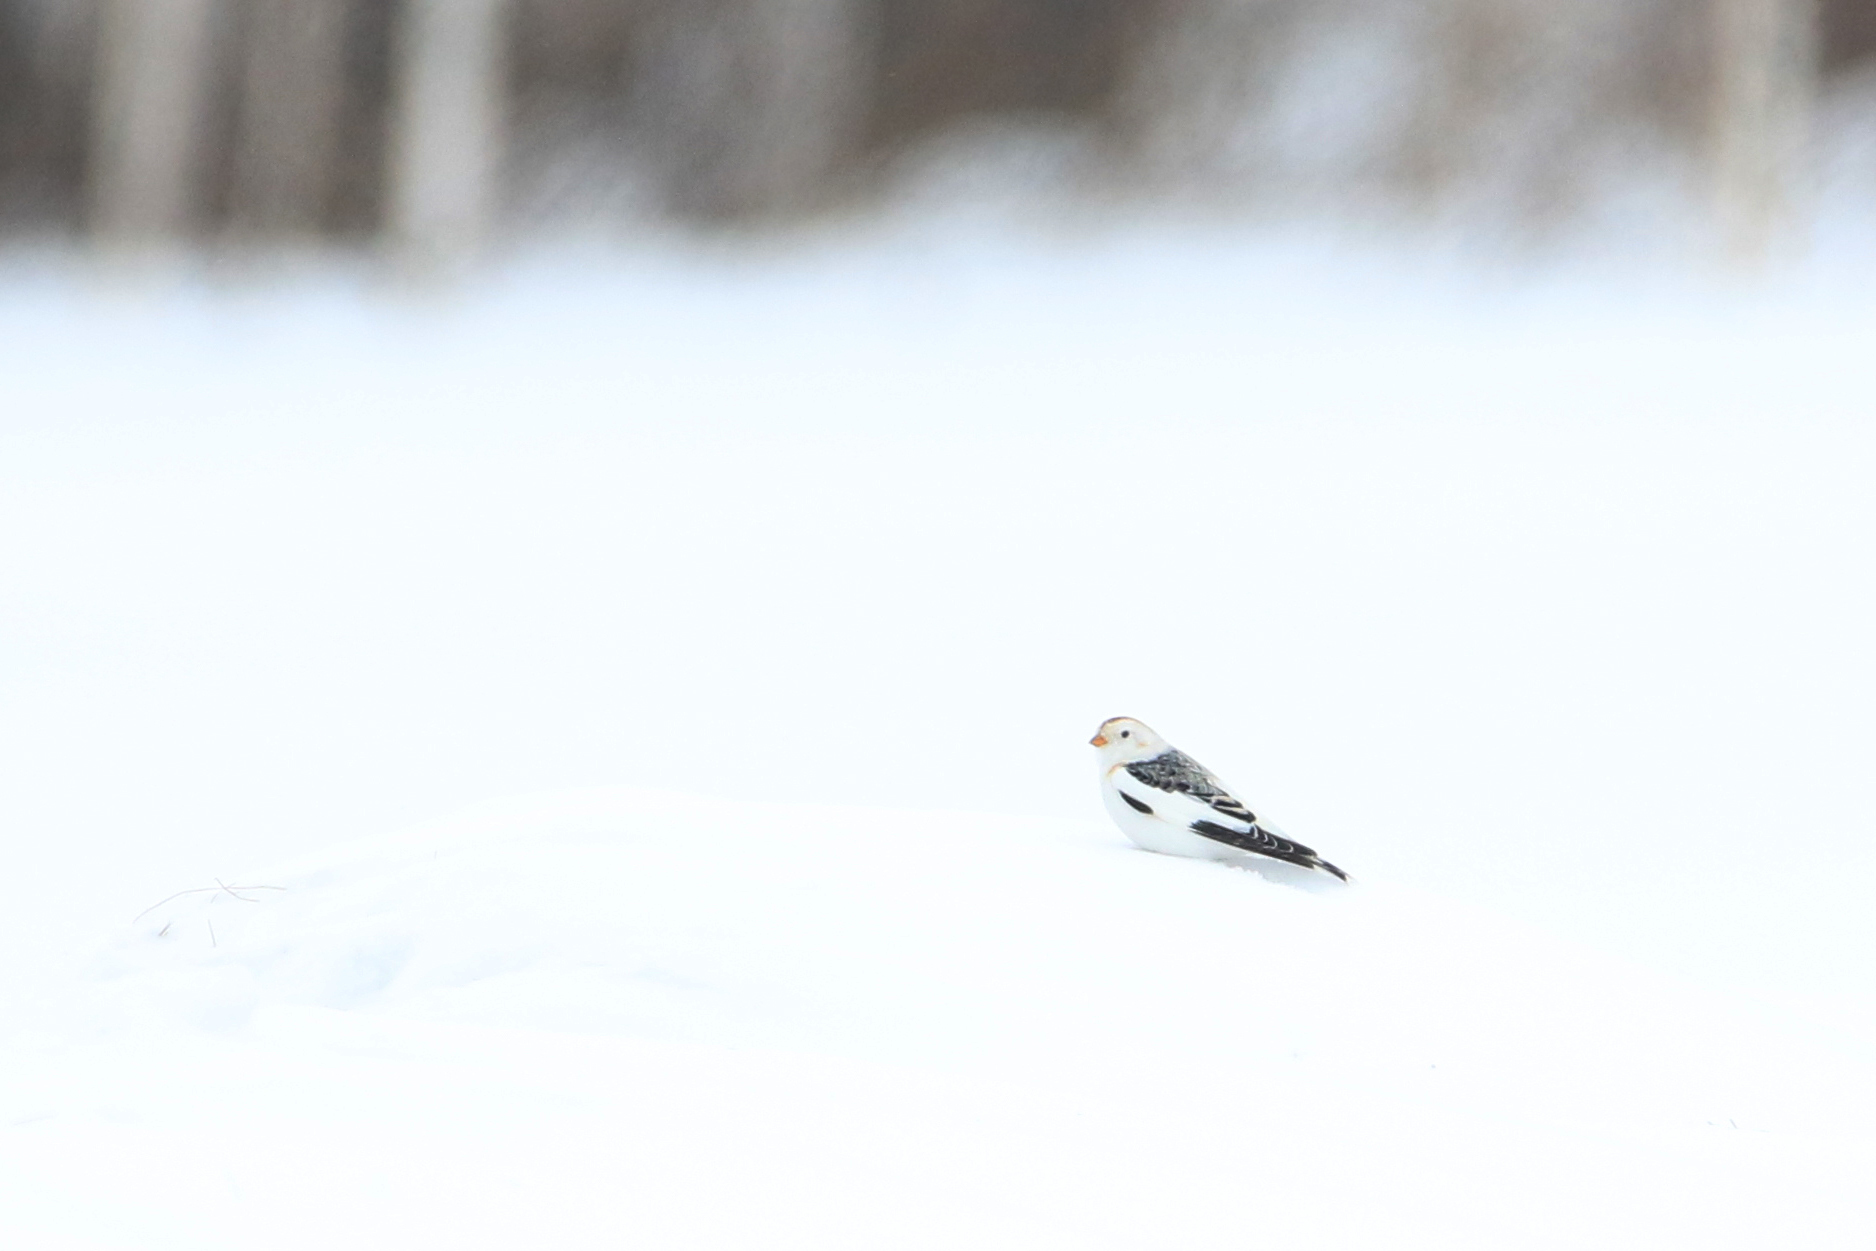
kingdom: Animalia
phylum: Chordata
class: Aves
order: Passeriformes
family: Calcariidae
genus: Plectrophenax
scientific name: Plectrophenax nivalis
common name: Snow bunting
